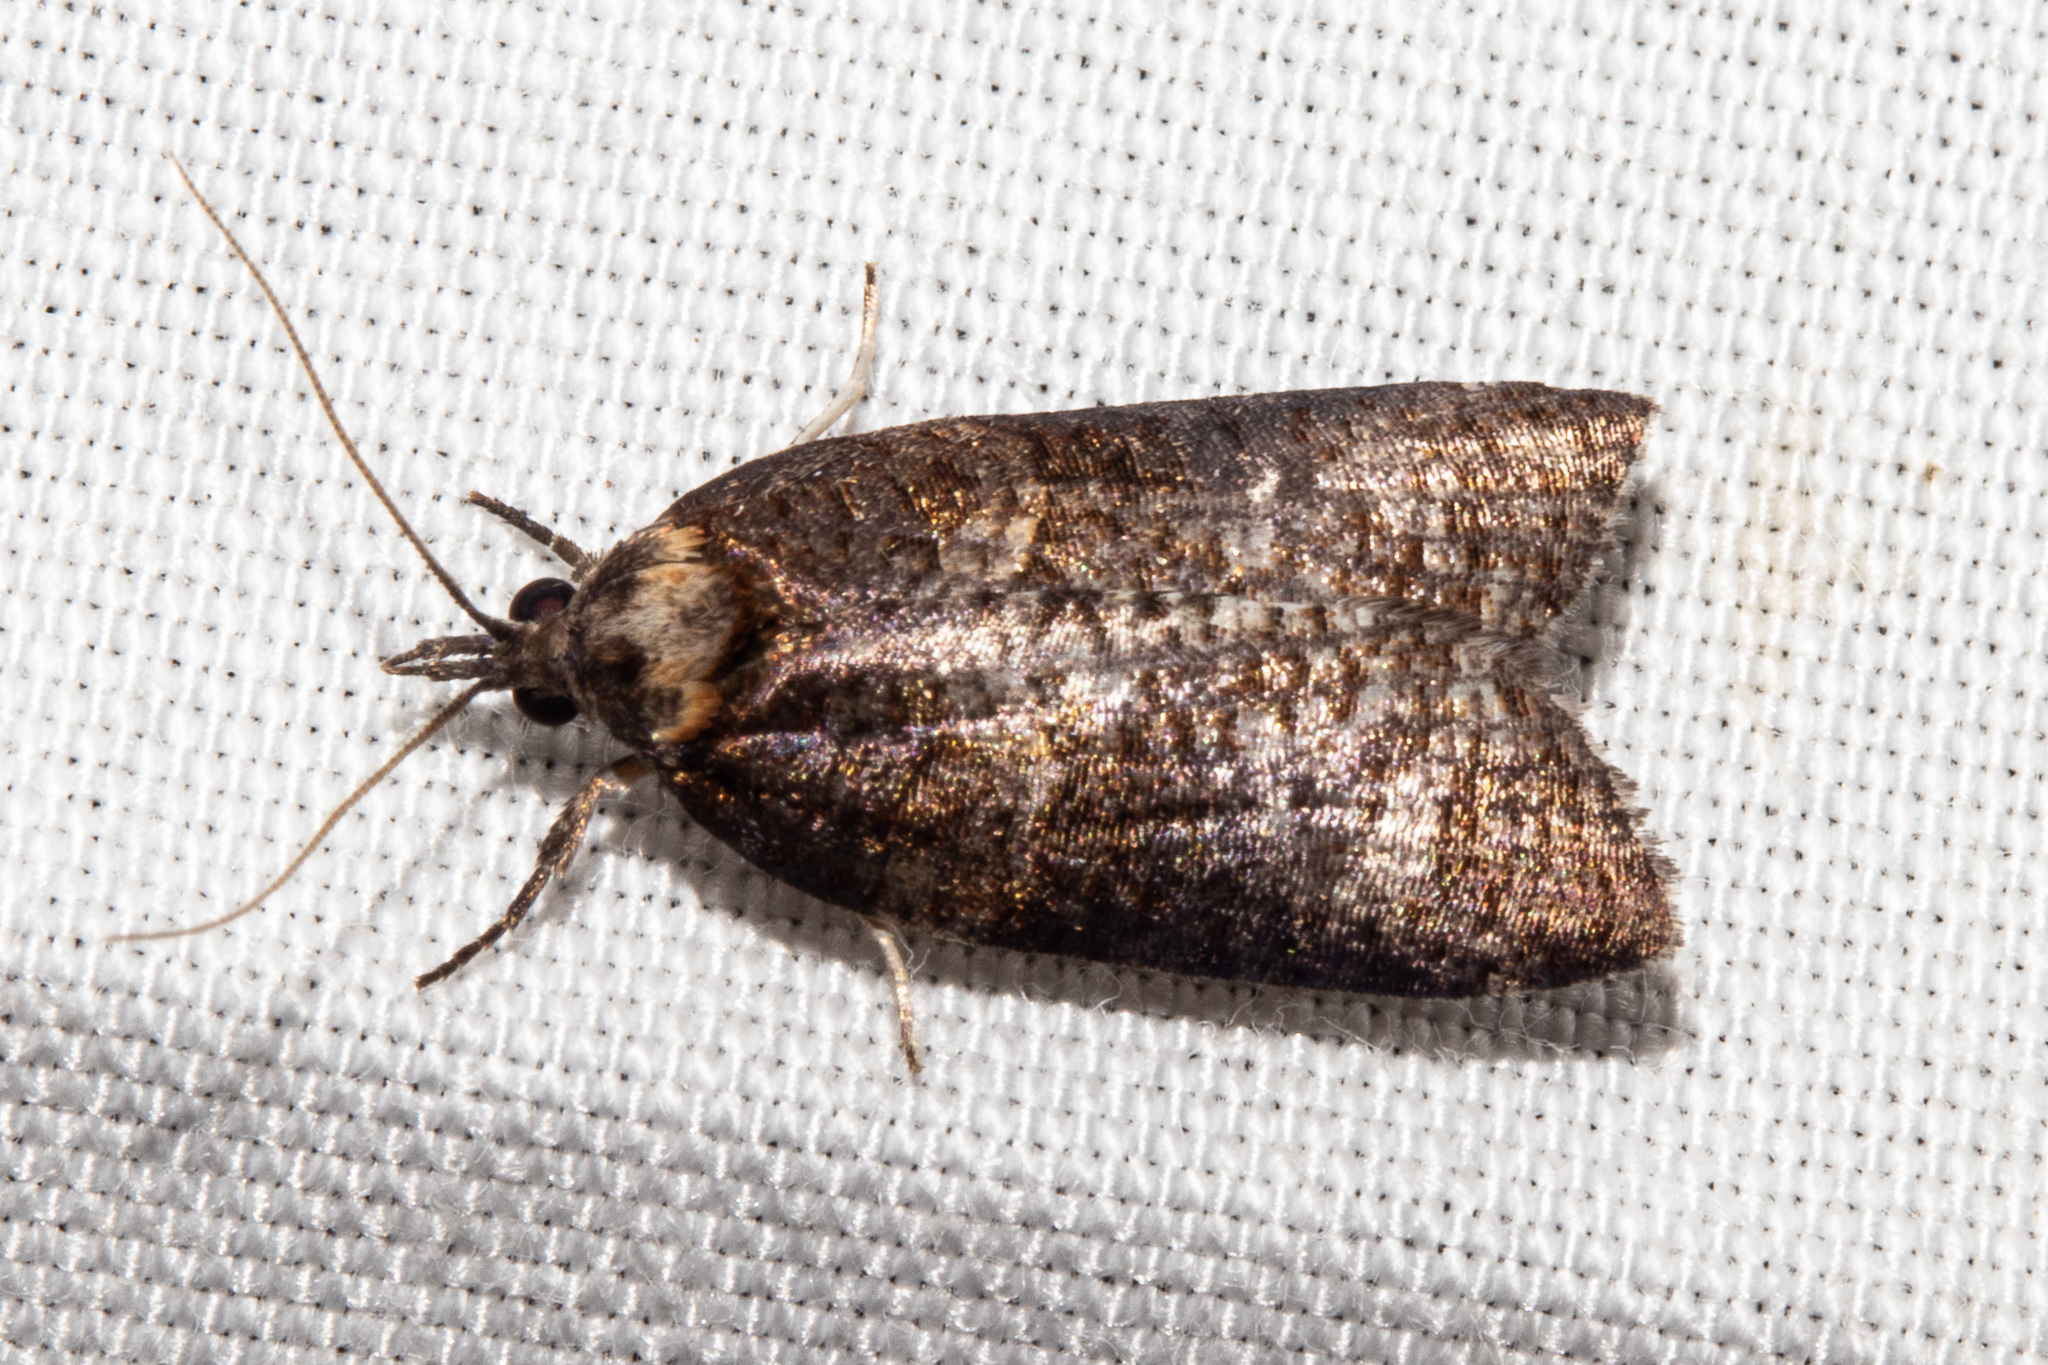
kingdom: Animalia
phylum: Arthropoda
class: Insecta
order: Lepidoptera
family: Tortricidae
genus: Maoritenes
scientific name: Maoritenes cyclobathra
